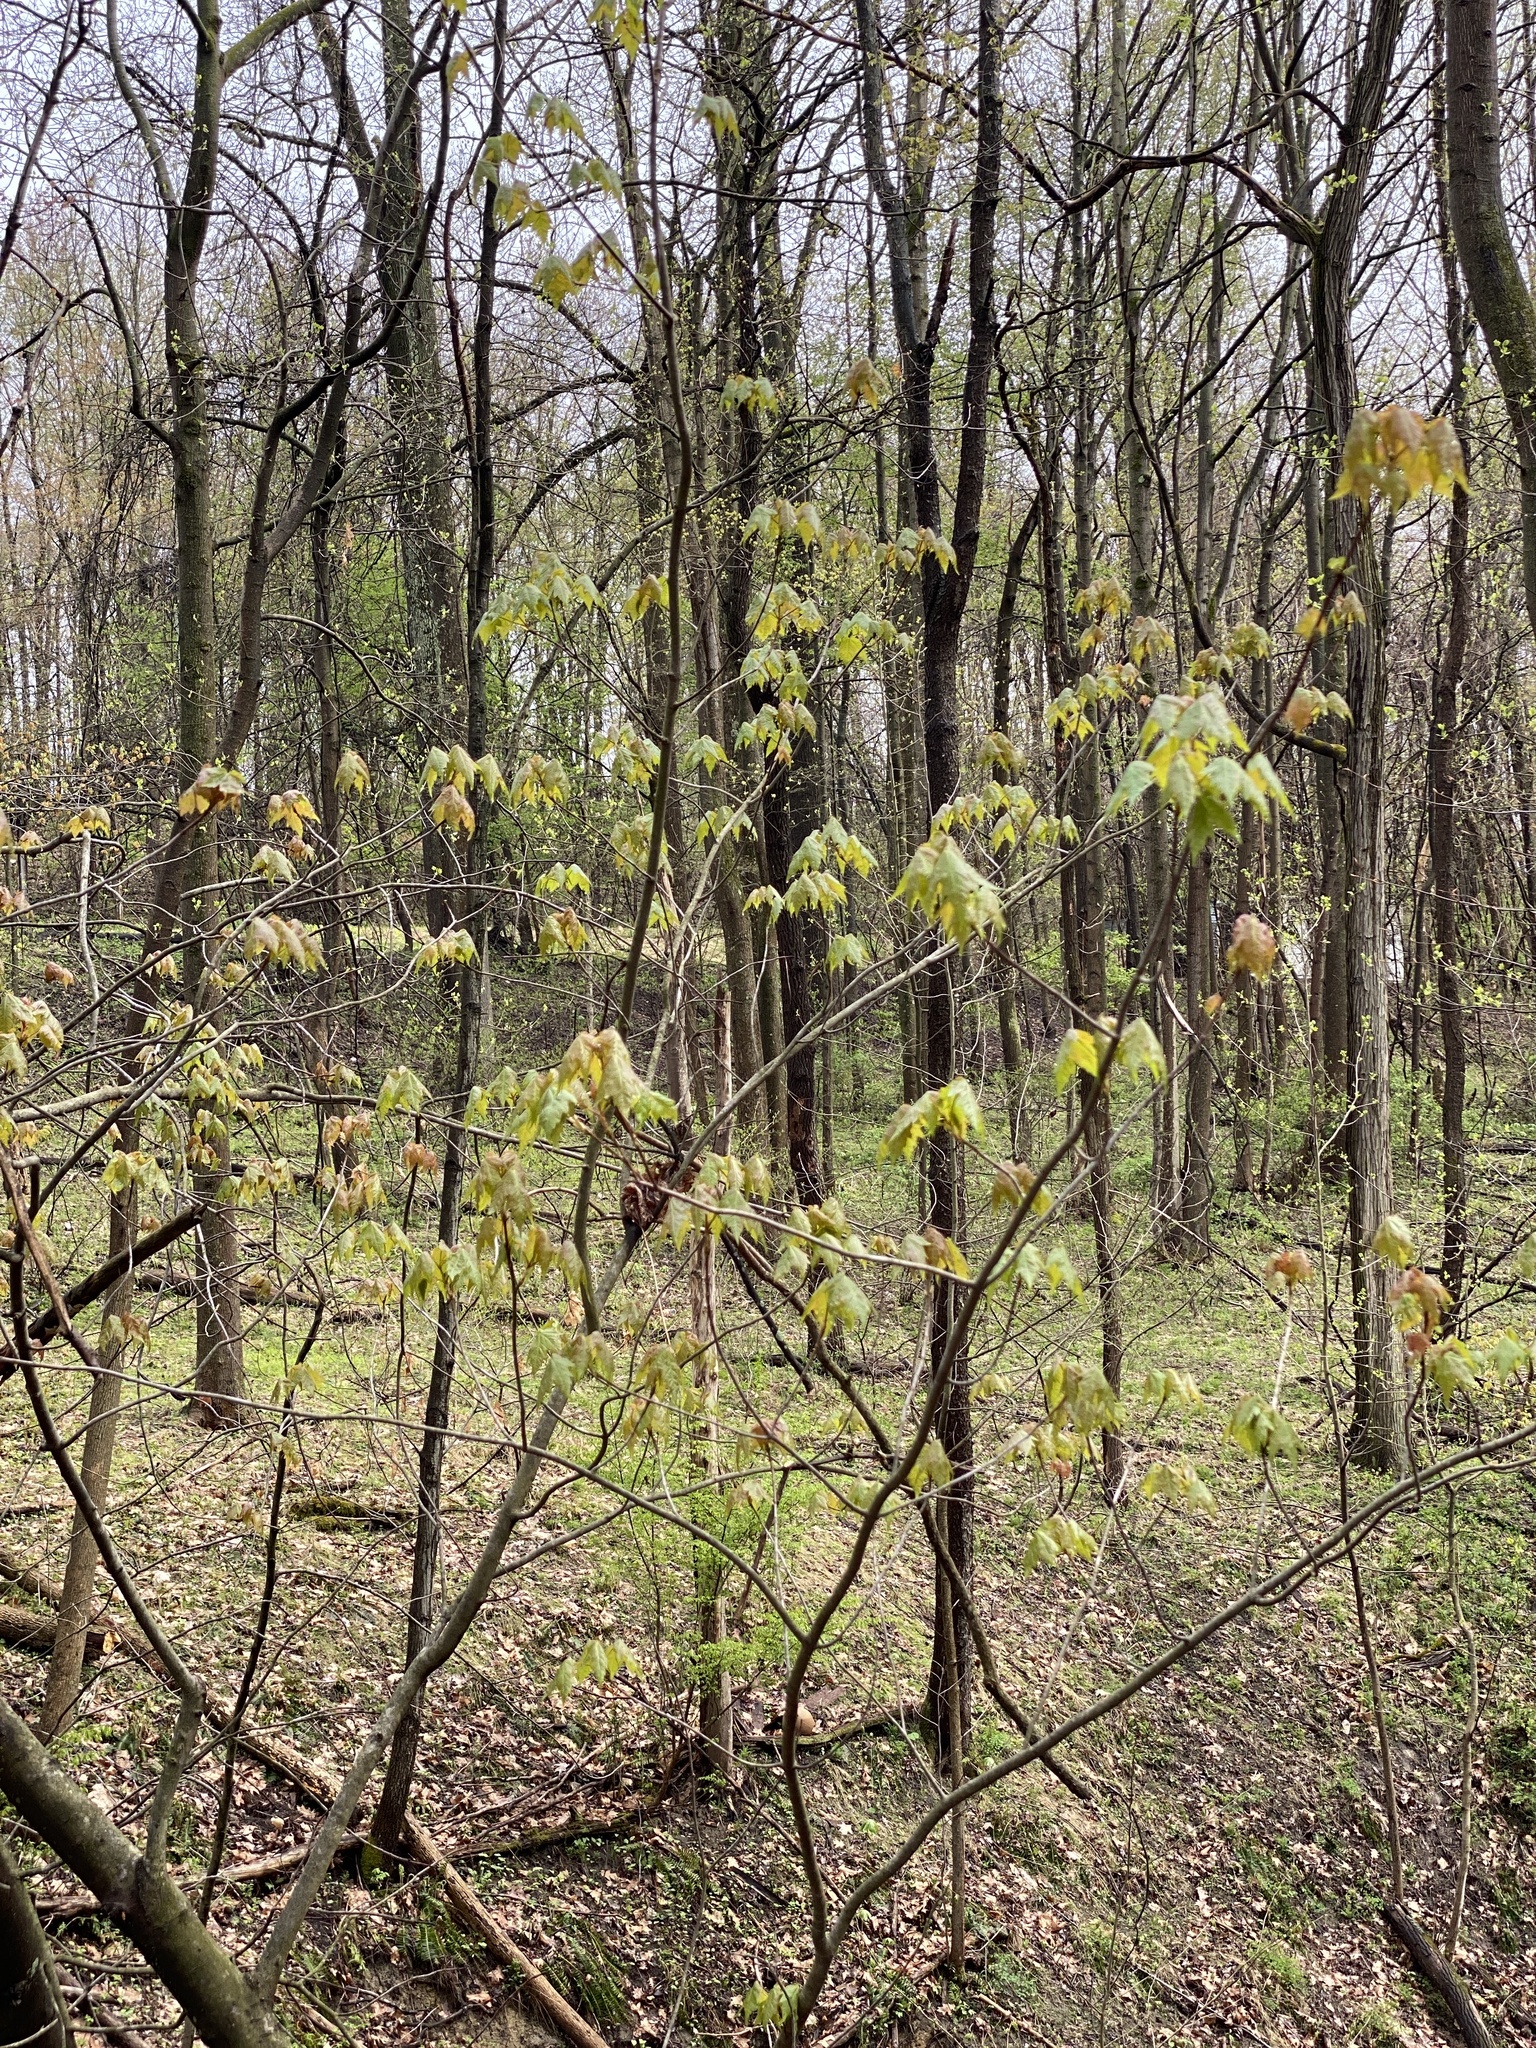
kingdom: Plantae
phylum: Tracheophyta
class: Magnoliopsida
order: Sapindales
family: Sapindaceae
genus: Acer
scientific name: Acer rubrum
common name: Red maple
